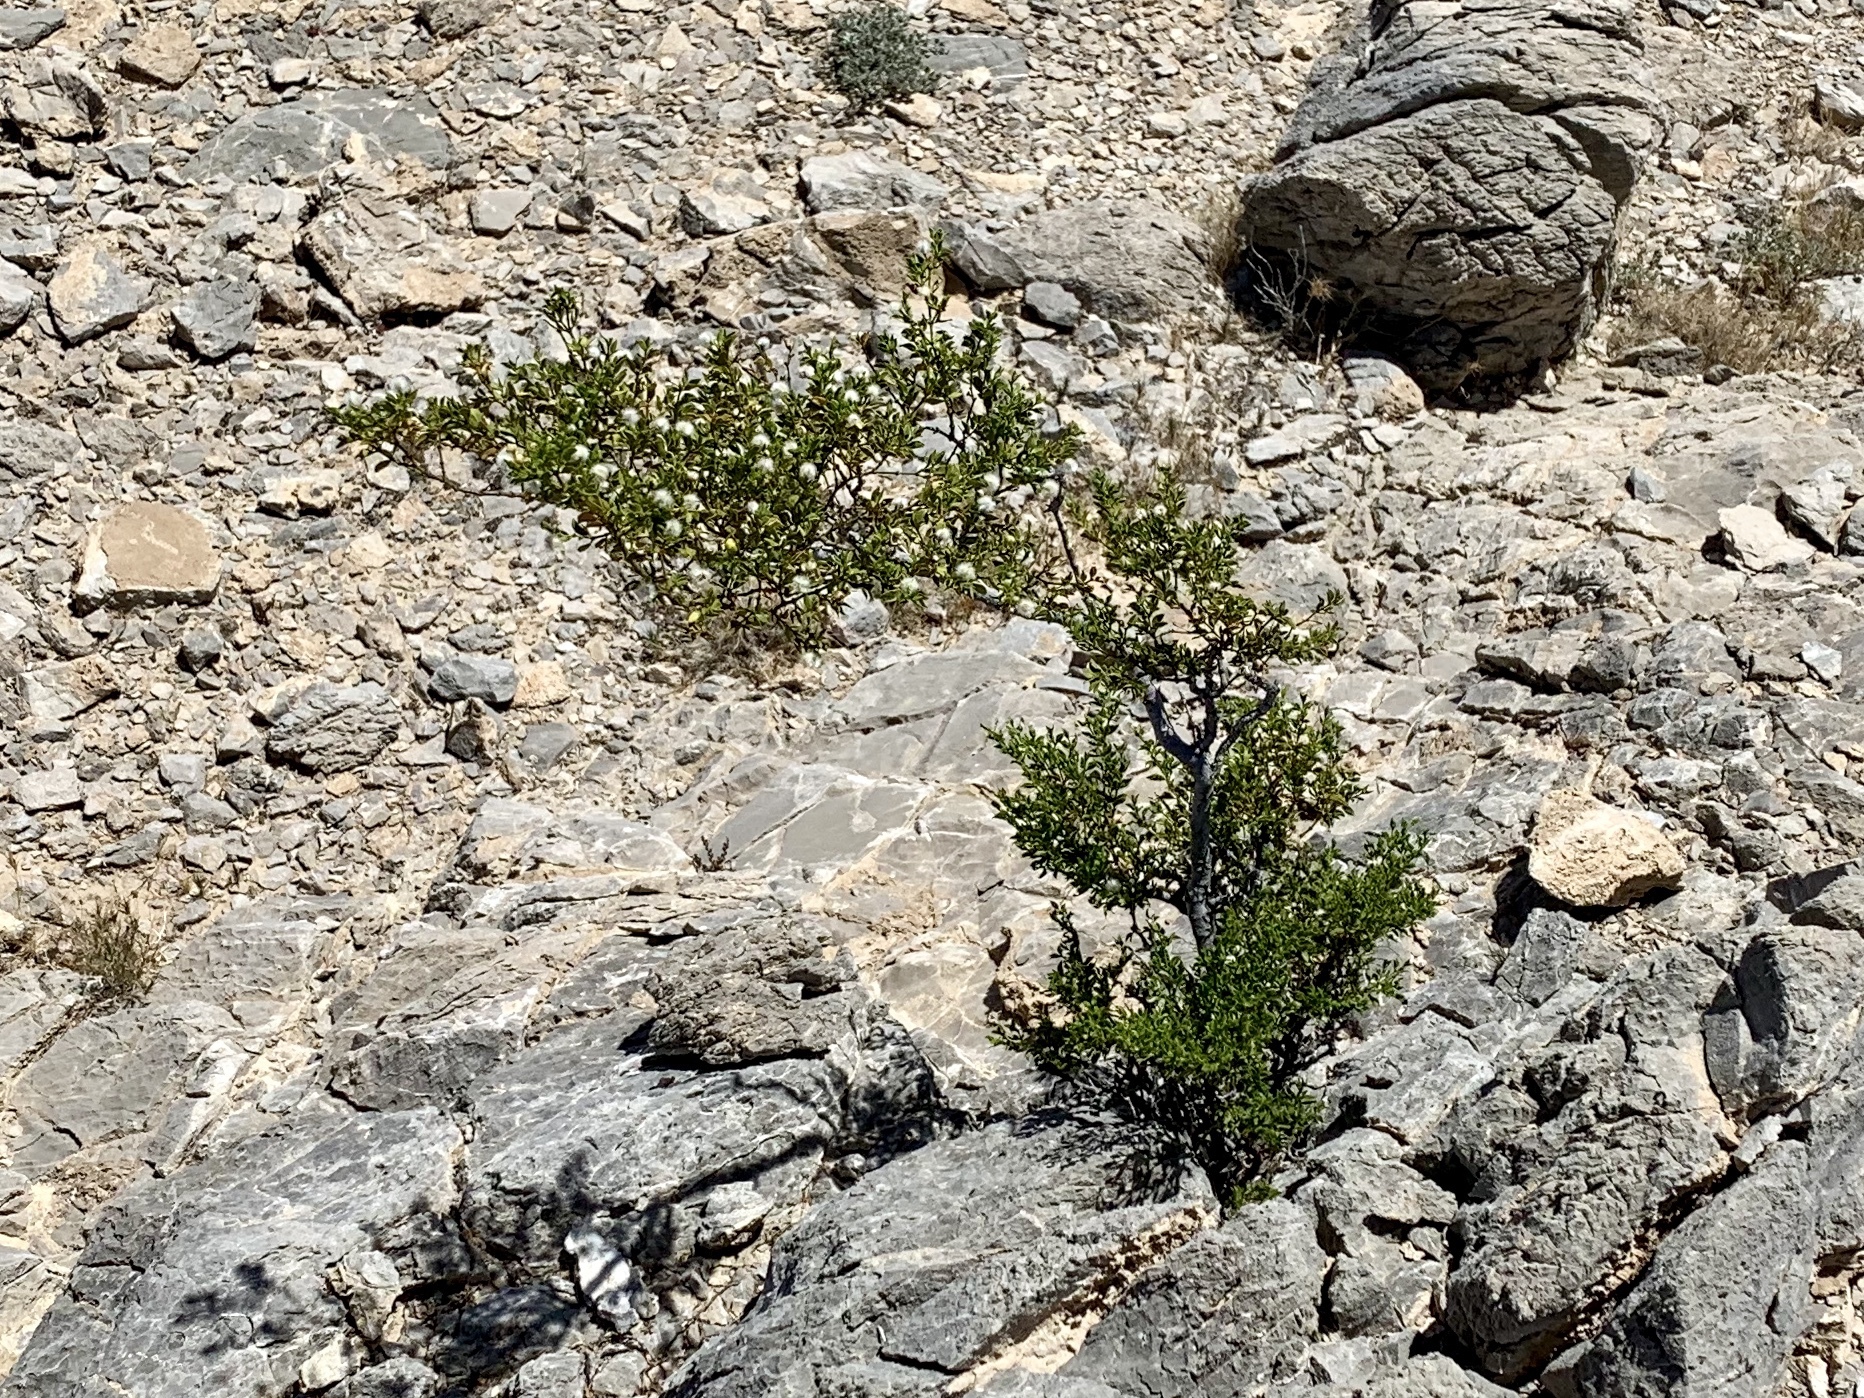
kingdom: Plantae
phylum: Tracheophyta
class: Magnoliopsida
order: Zygophyllales
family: Zygophyllaceae
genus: Larrea
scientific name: Larrea tridentata
